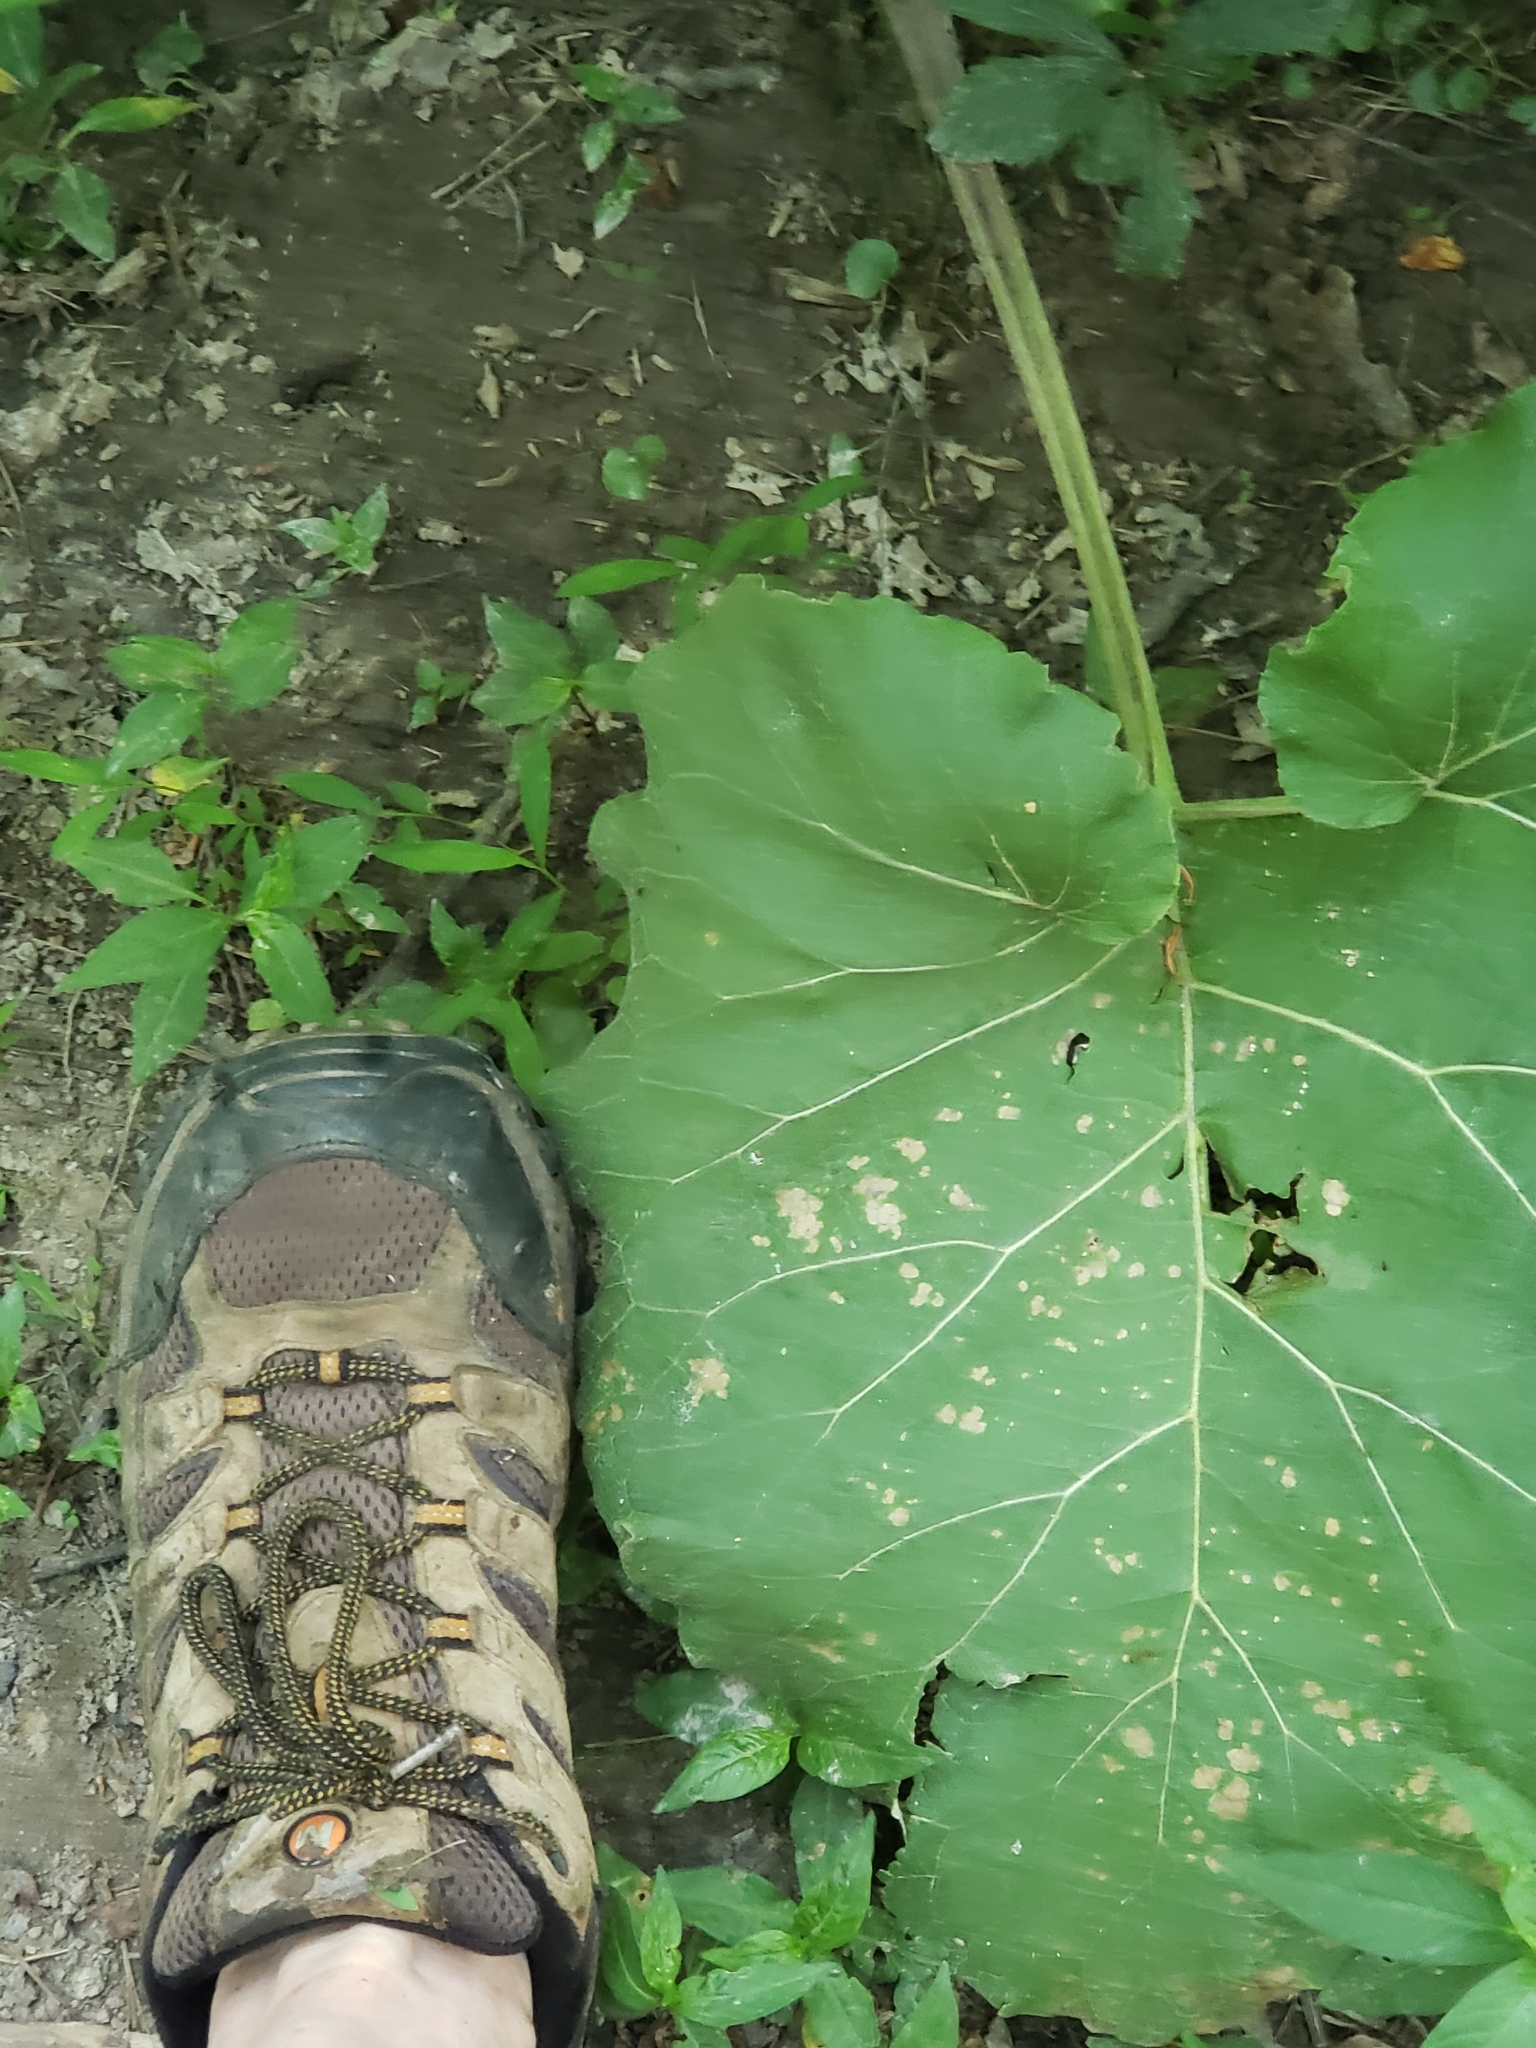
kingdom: Plantae
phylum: Tracheophyta
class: Magnoliopsida
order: Asterales
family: Asteraceae
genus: Arctium
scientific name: Arctium
